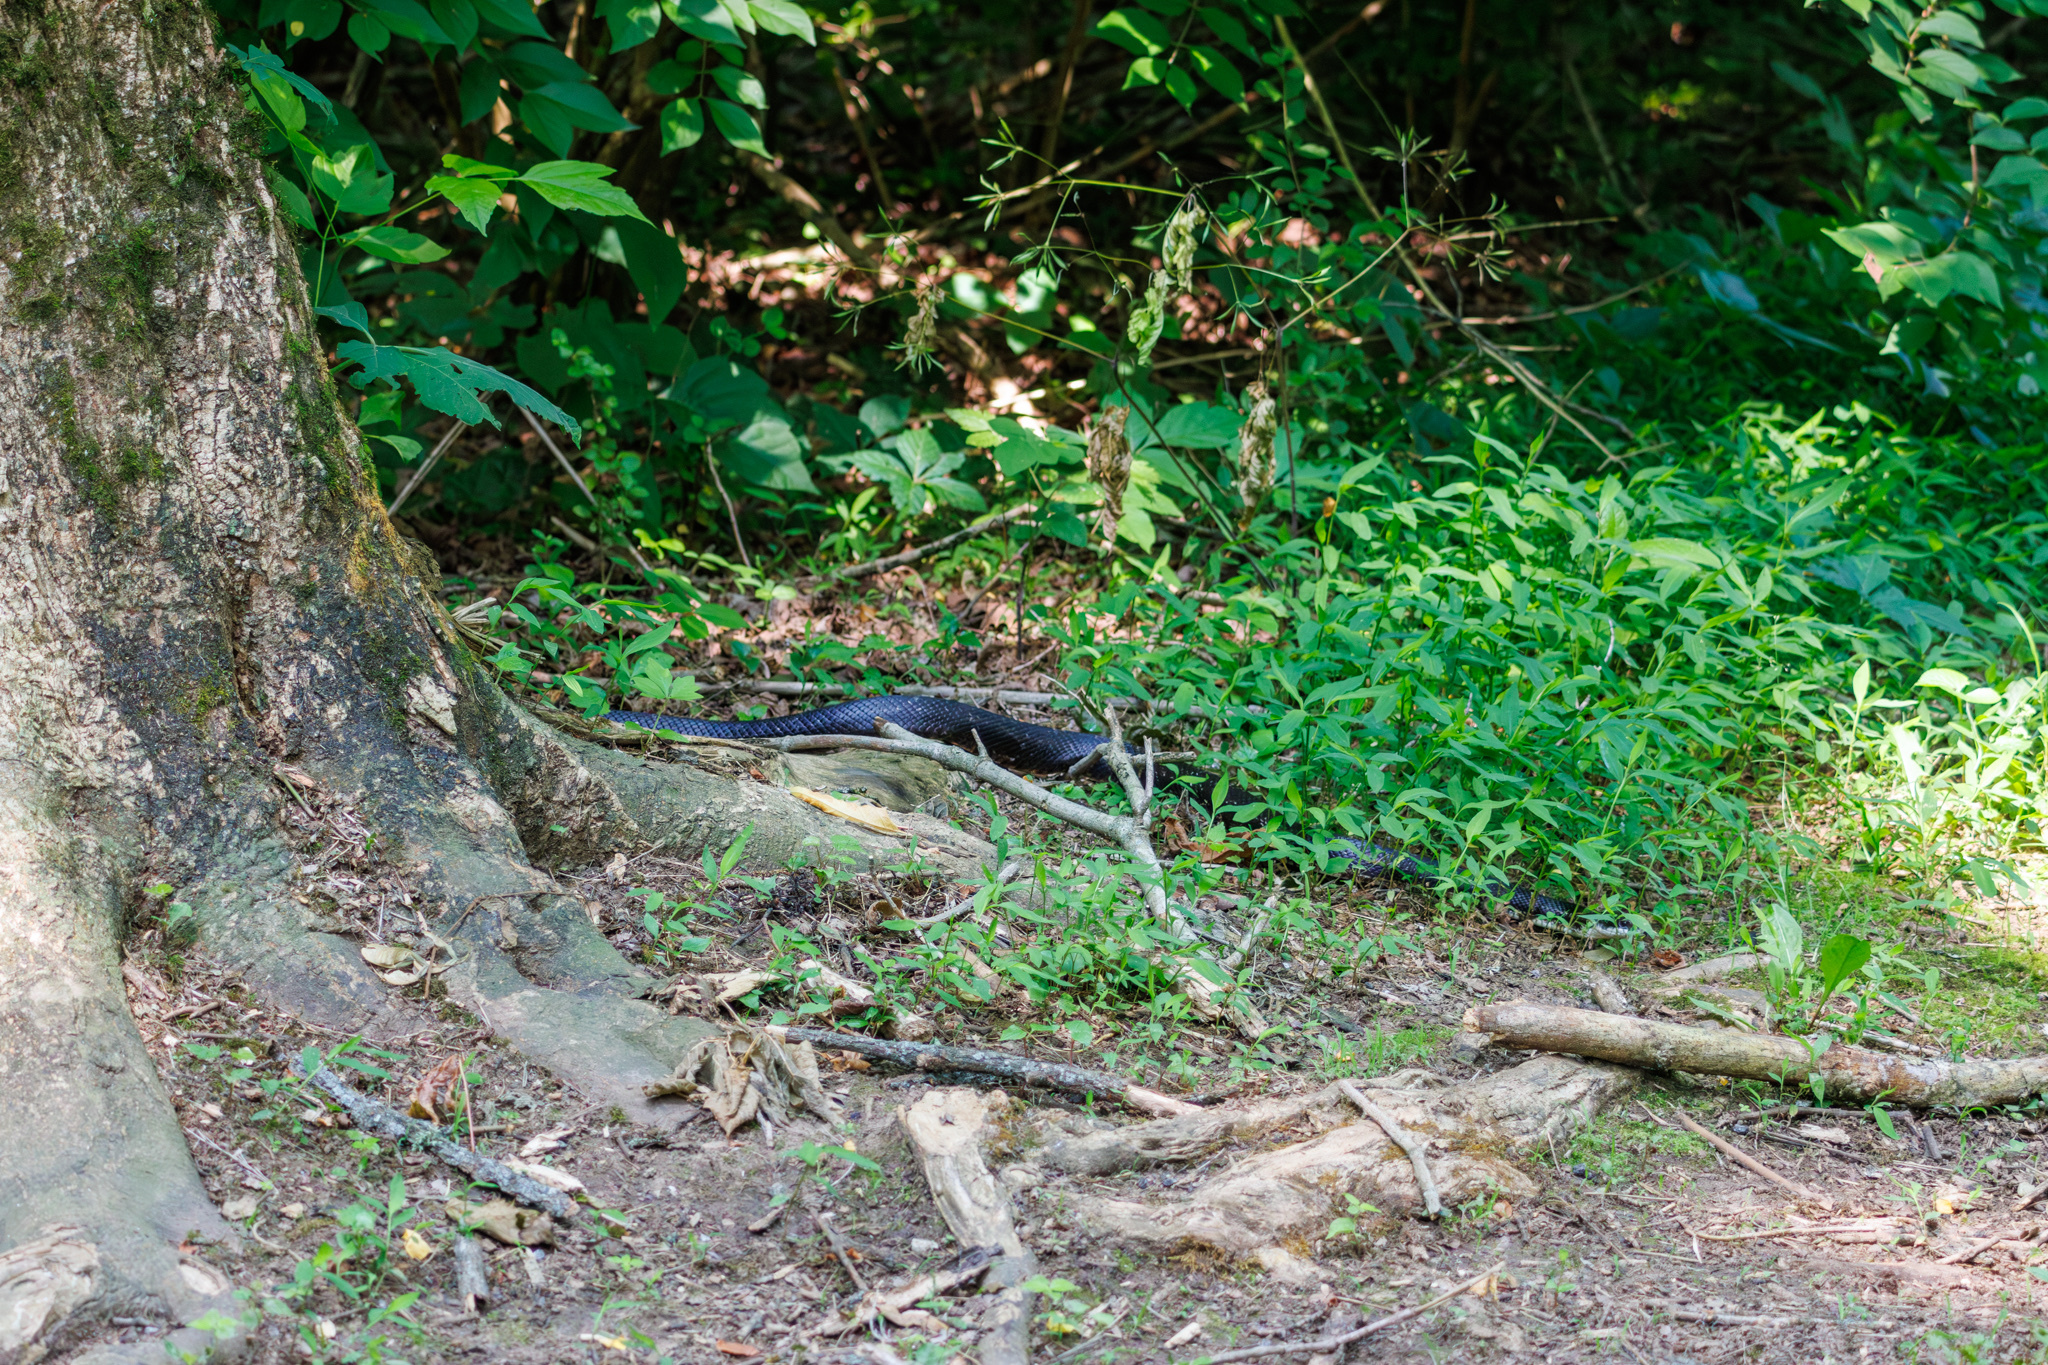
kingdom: Animalia
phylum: Chordata
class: Squamata
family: Colubridae
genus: Pantherophis
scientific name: Pantherophis spiloides
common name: Gray rat snake
